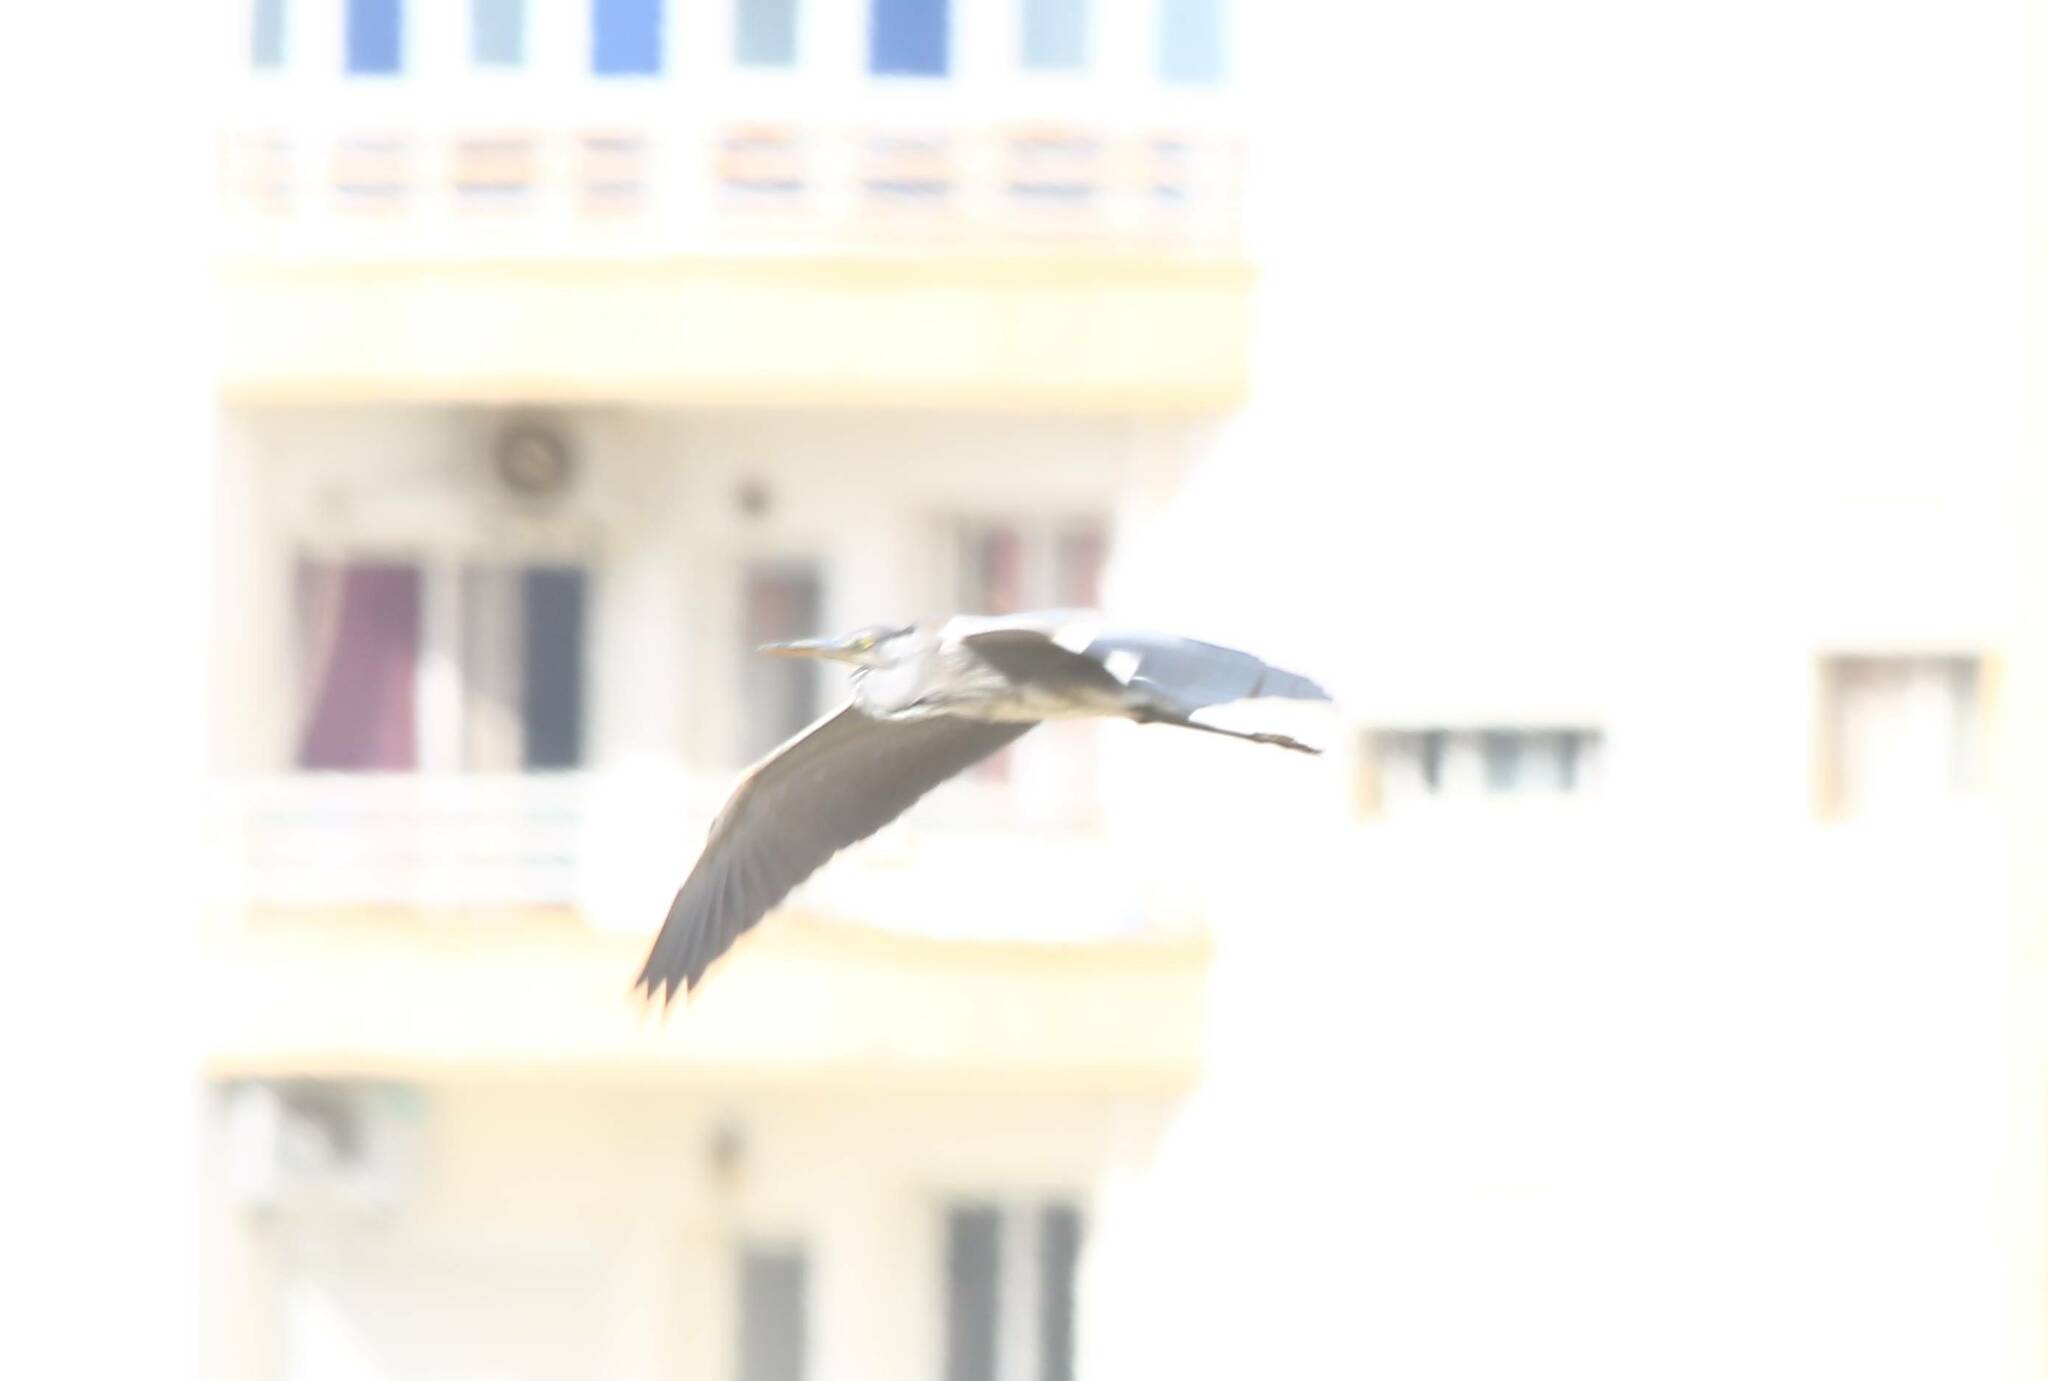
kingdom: Animalia
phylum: Chordata
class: Aves
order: Pelecaniformes
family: Ardeidae
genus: Ardea
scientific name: Ardea cinerea
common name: Grey heron
